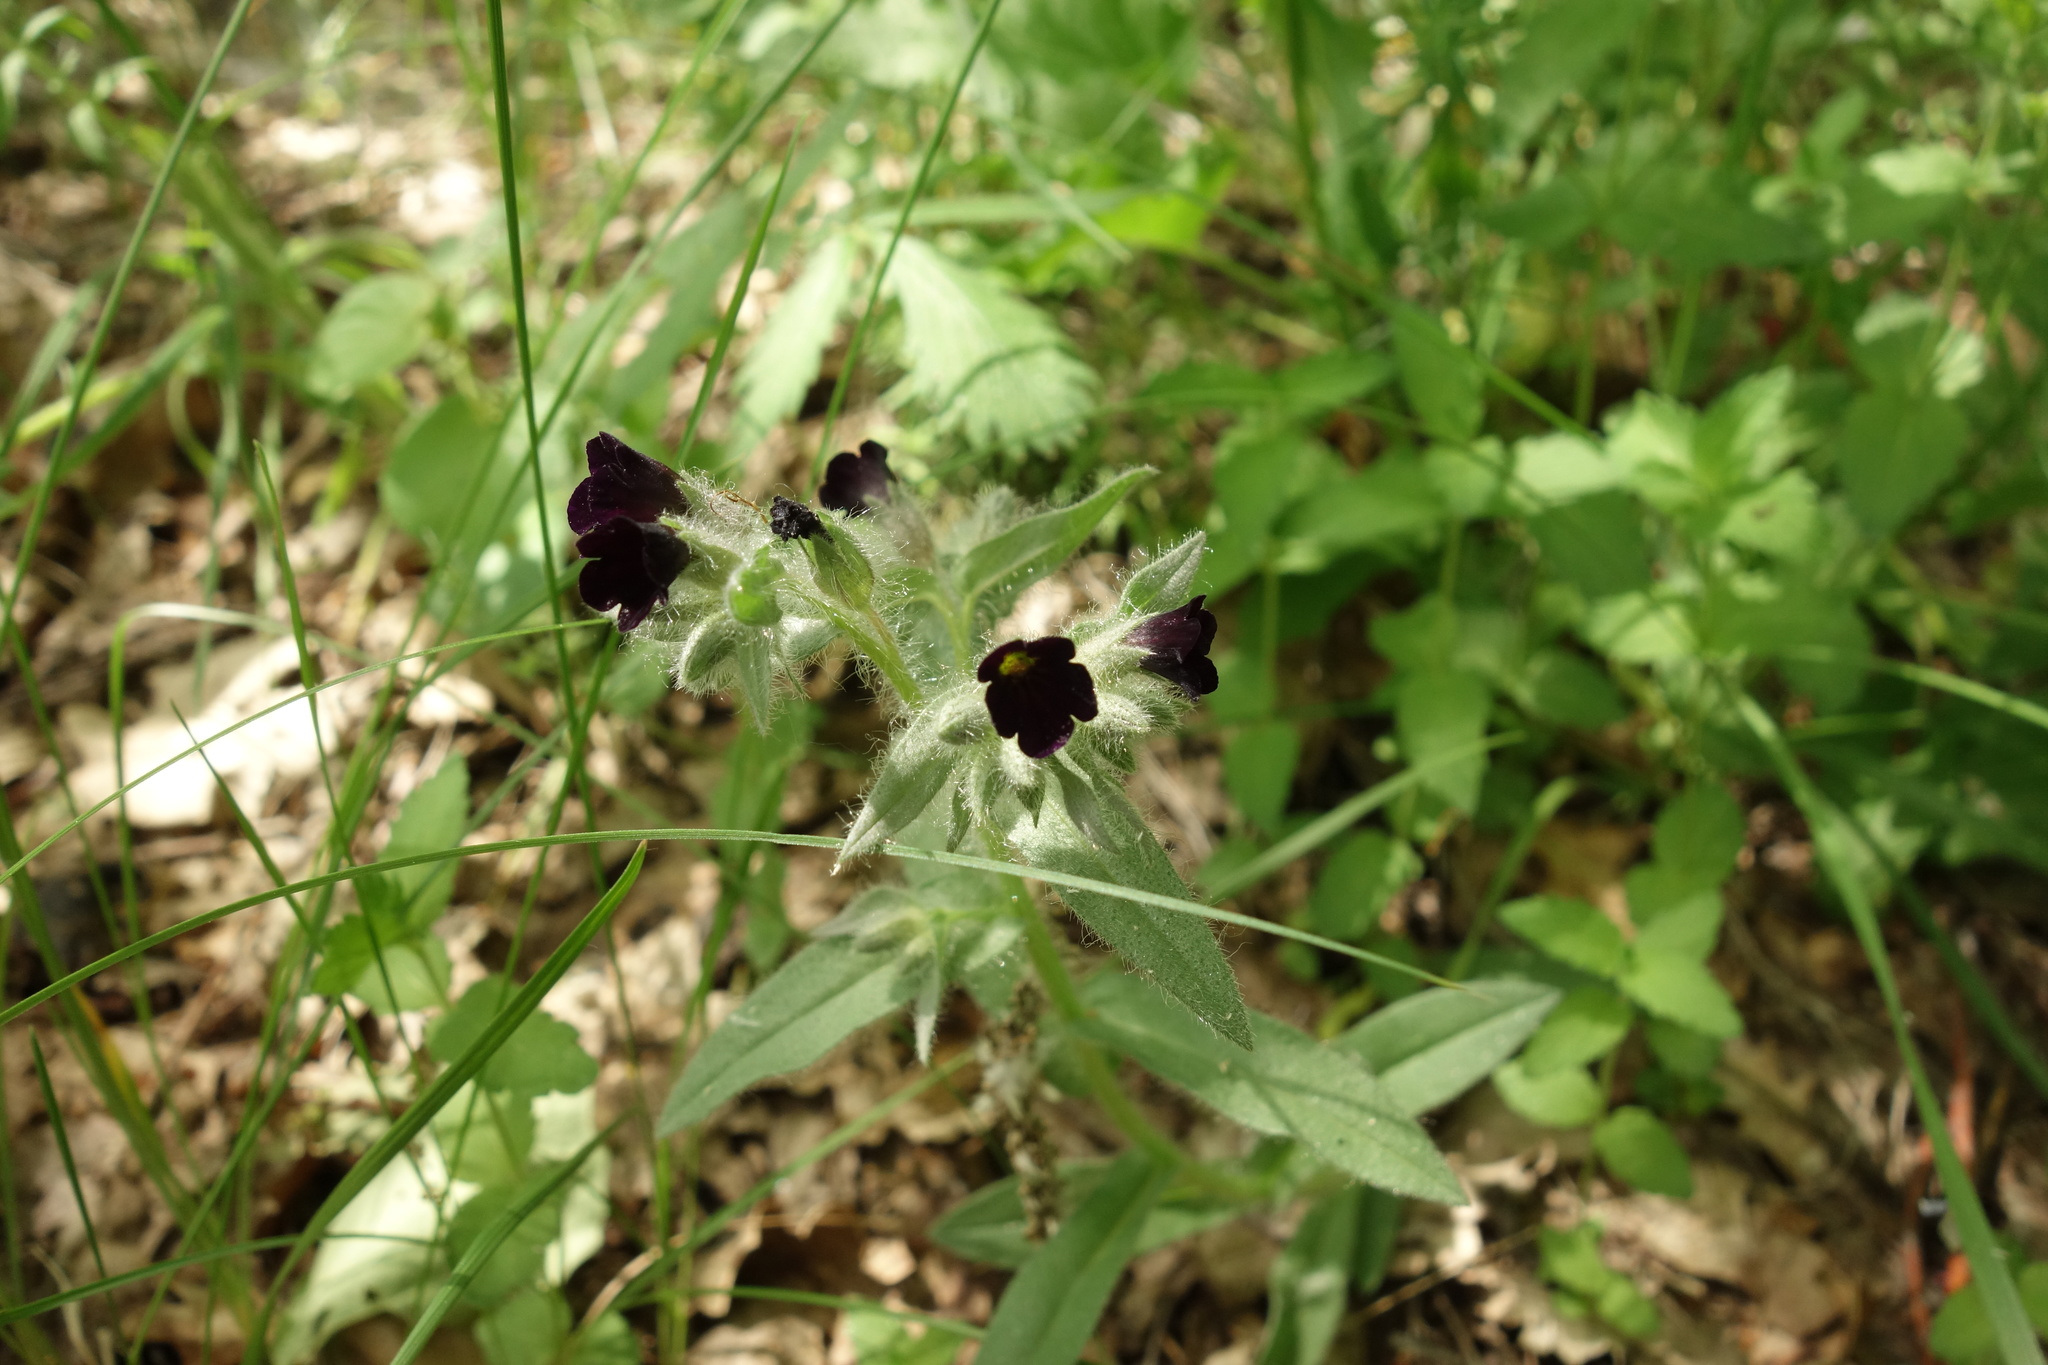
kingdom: Plantae
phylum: Tracheophyta
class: Magnoliopsida
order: Boraginales
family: Boraginaceae
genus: Nonea
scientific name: Nonea pulla
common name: Brown nonea
